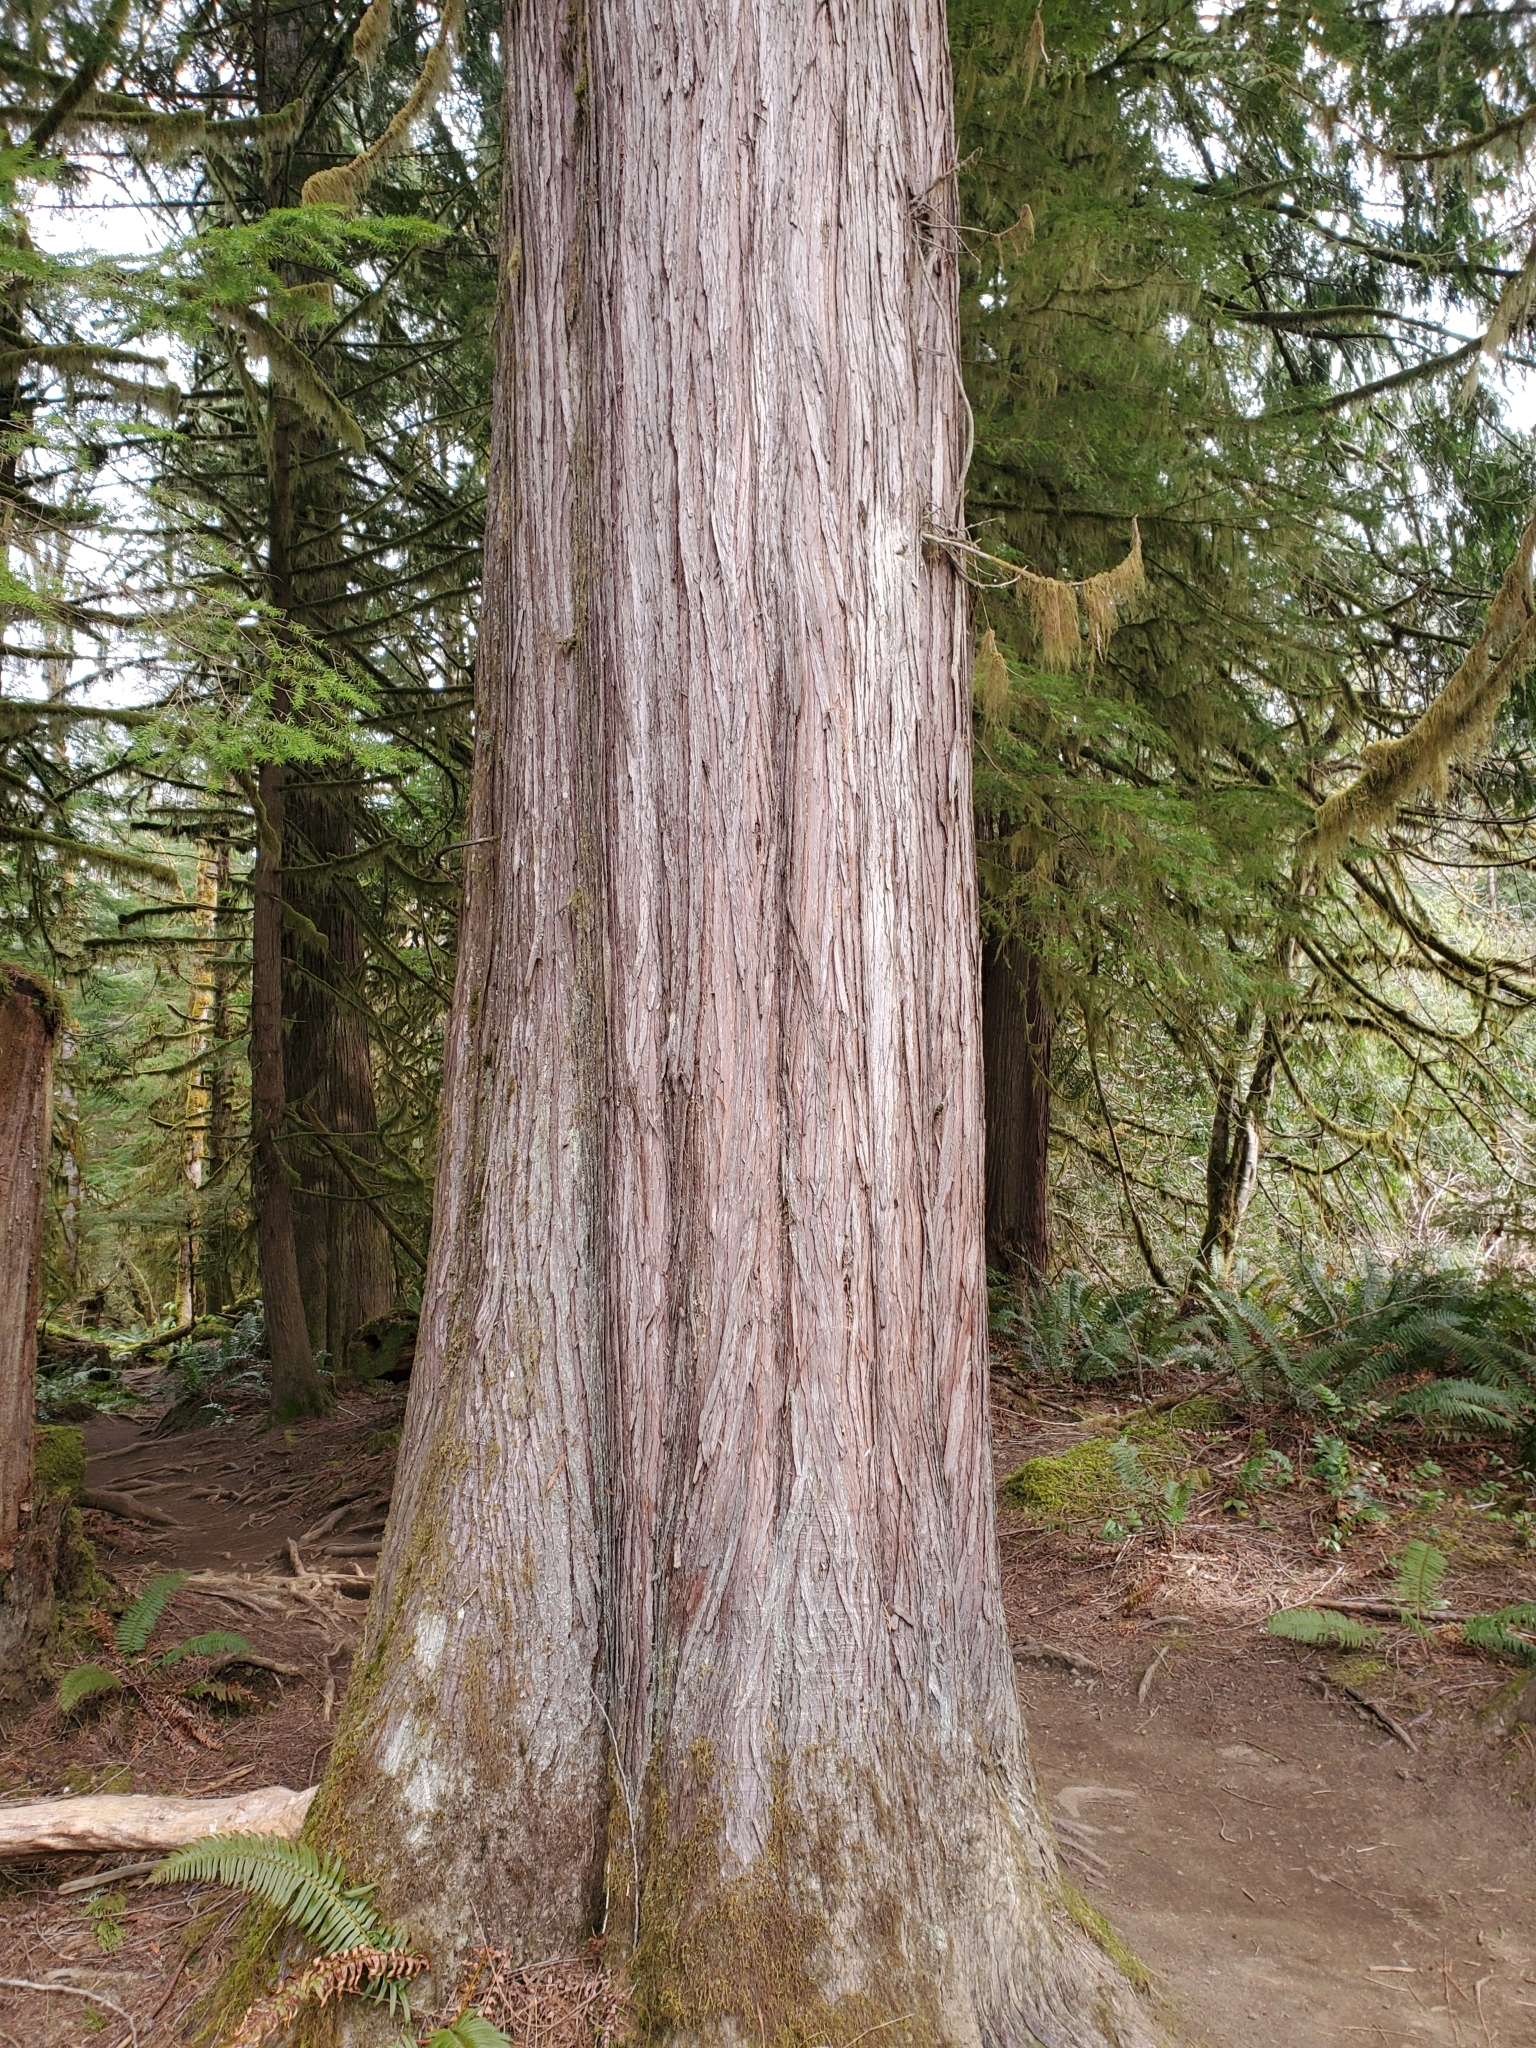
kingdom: Plantae
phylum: Tracheophyta
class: Pinopsida
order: Pinales
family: Cupressaceae
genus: Thuja
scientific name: Thuja plicata
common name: Western red-cedar
